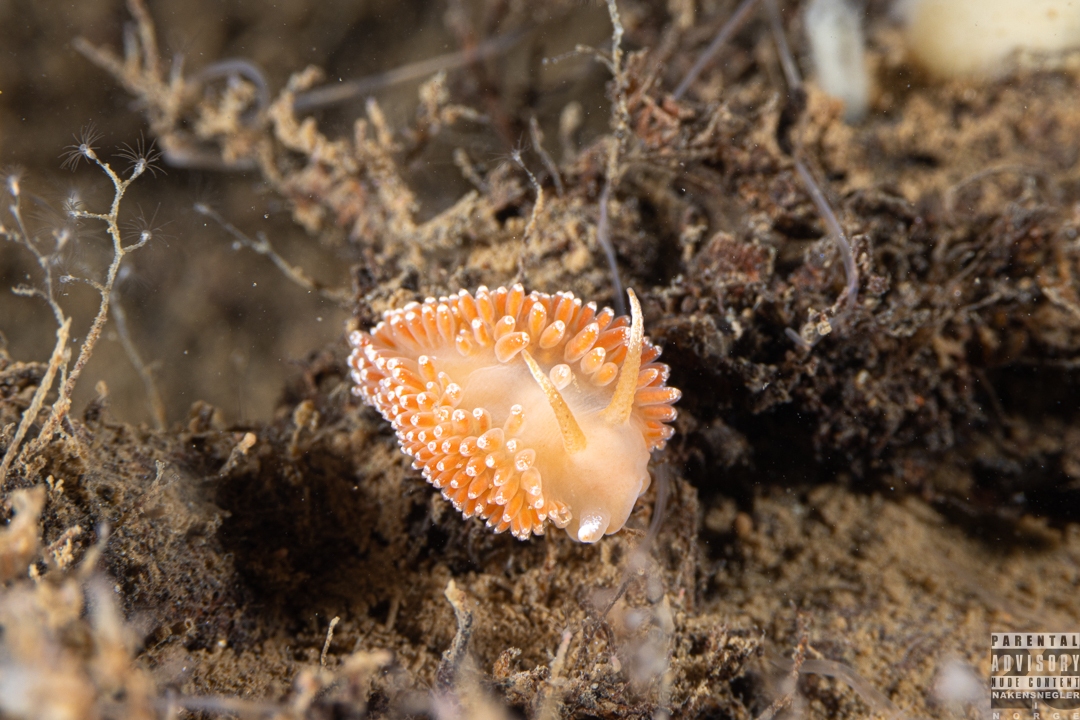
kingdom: Animalia
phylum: Mollusca
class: Gastropoda
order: Nudibranchia
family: Coryphellidae
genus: Coryphella
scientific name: Coryphella borealis
